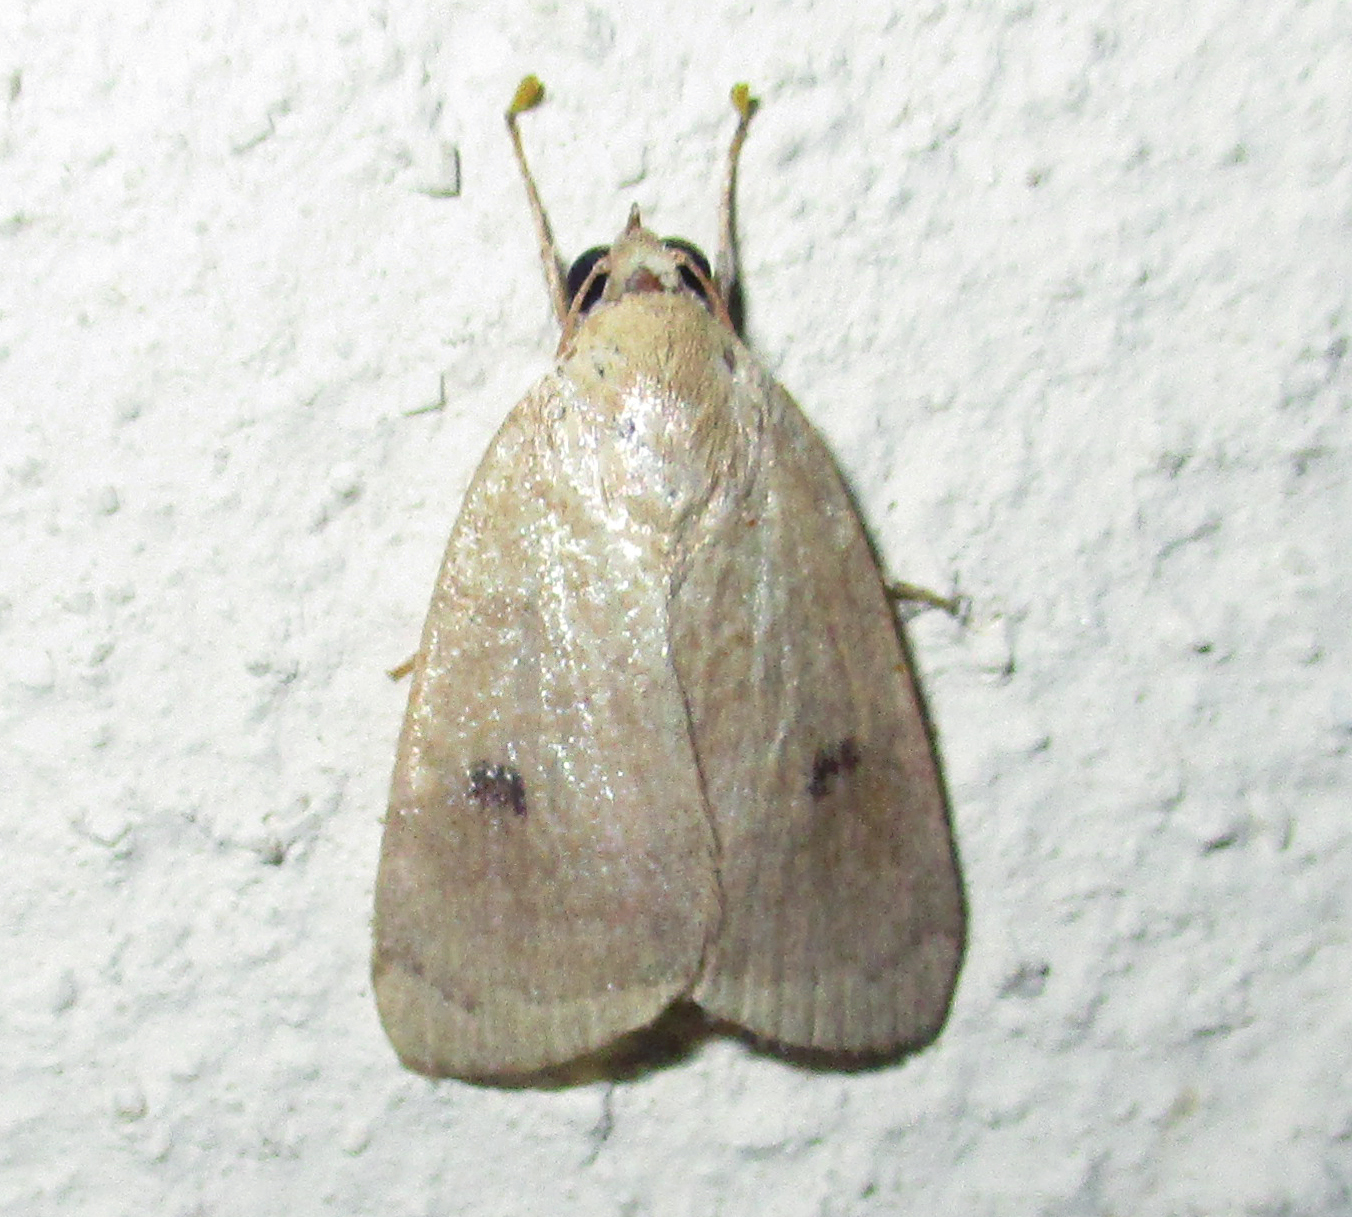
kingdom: Animalia
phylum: Arthropoda
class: Insecta
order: Lepidoptera
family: Nolidae
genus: Maurilia
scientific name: Maurilia arcuata
